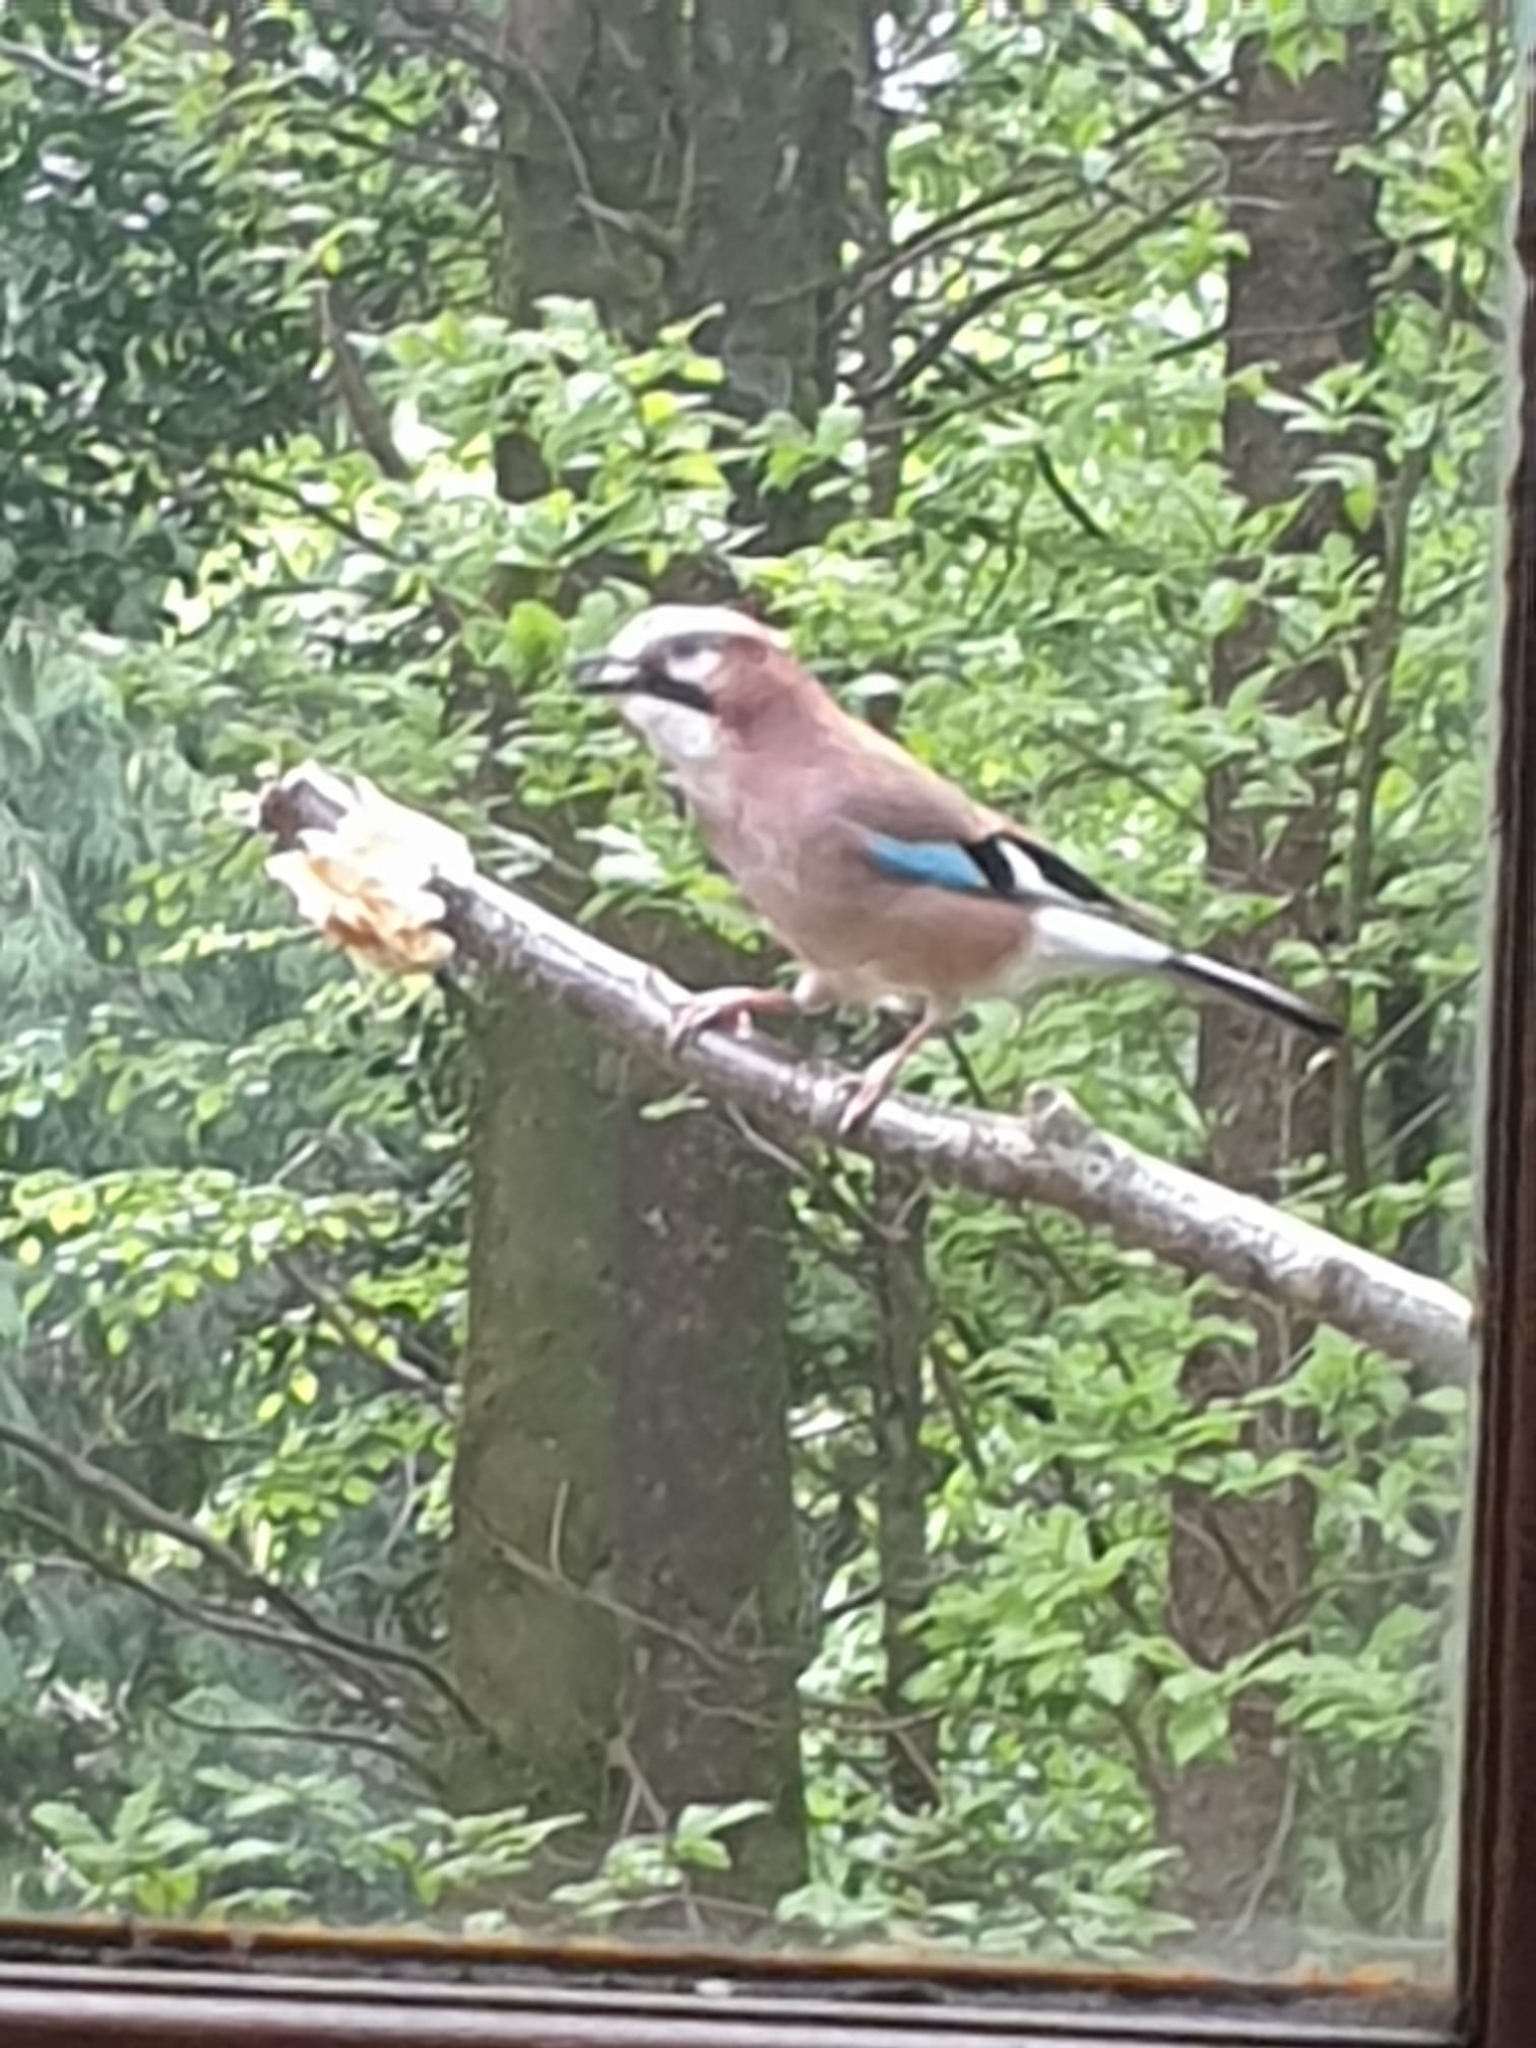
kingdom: Animalia
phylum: Chordata
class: Aves
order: Passeriformes
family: Corvidae
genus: Garrulus
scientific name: Garrulus glandarius
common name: Eurasian jay
